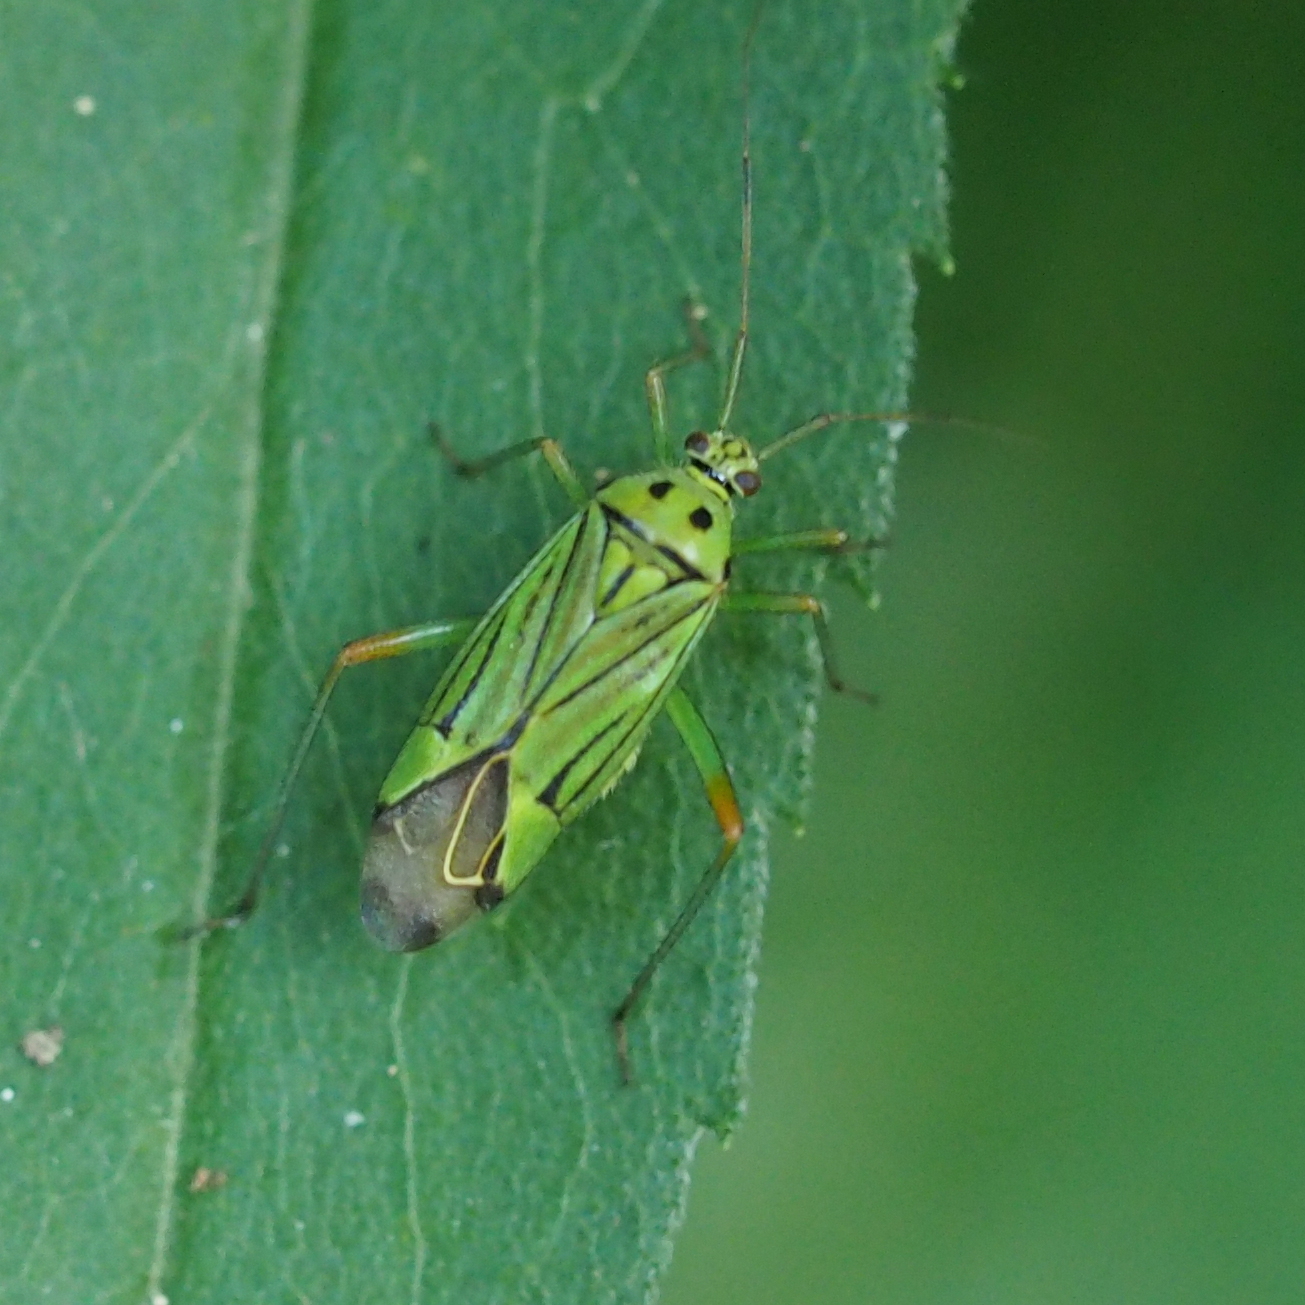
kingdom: Animalia
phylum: Arthropoda
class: Insecta
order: Hemiptera
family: Miridae
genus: Mermitelocerus
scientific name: Mermitelocerus schmidtii
